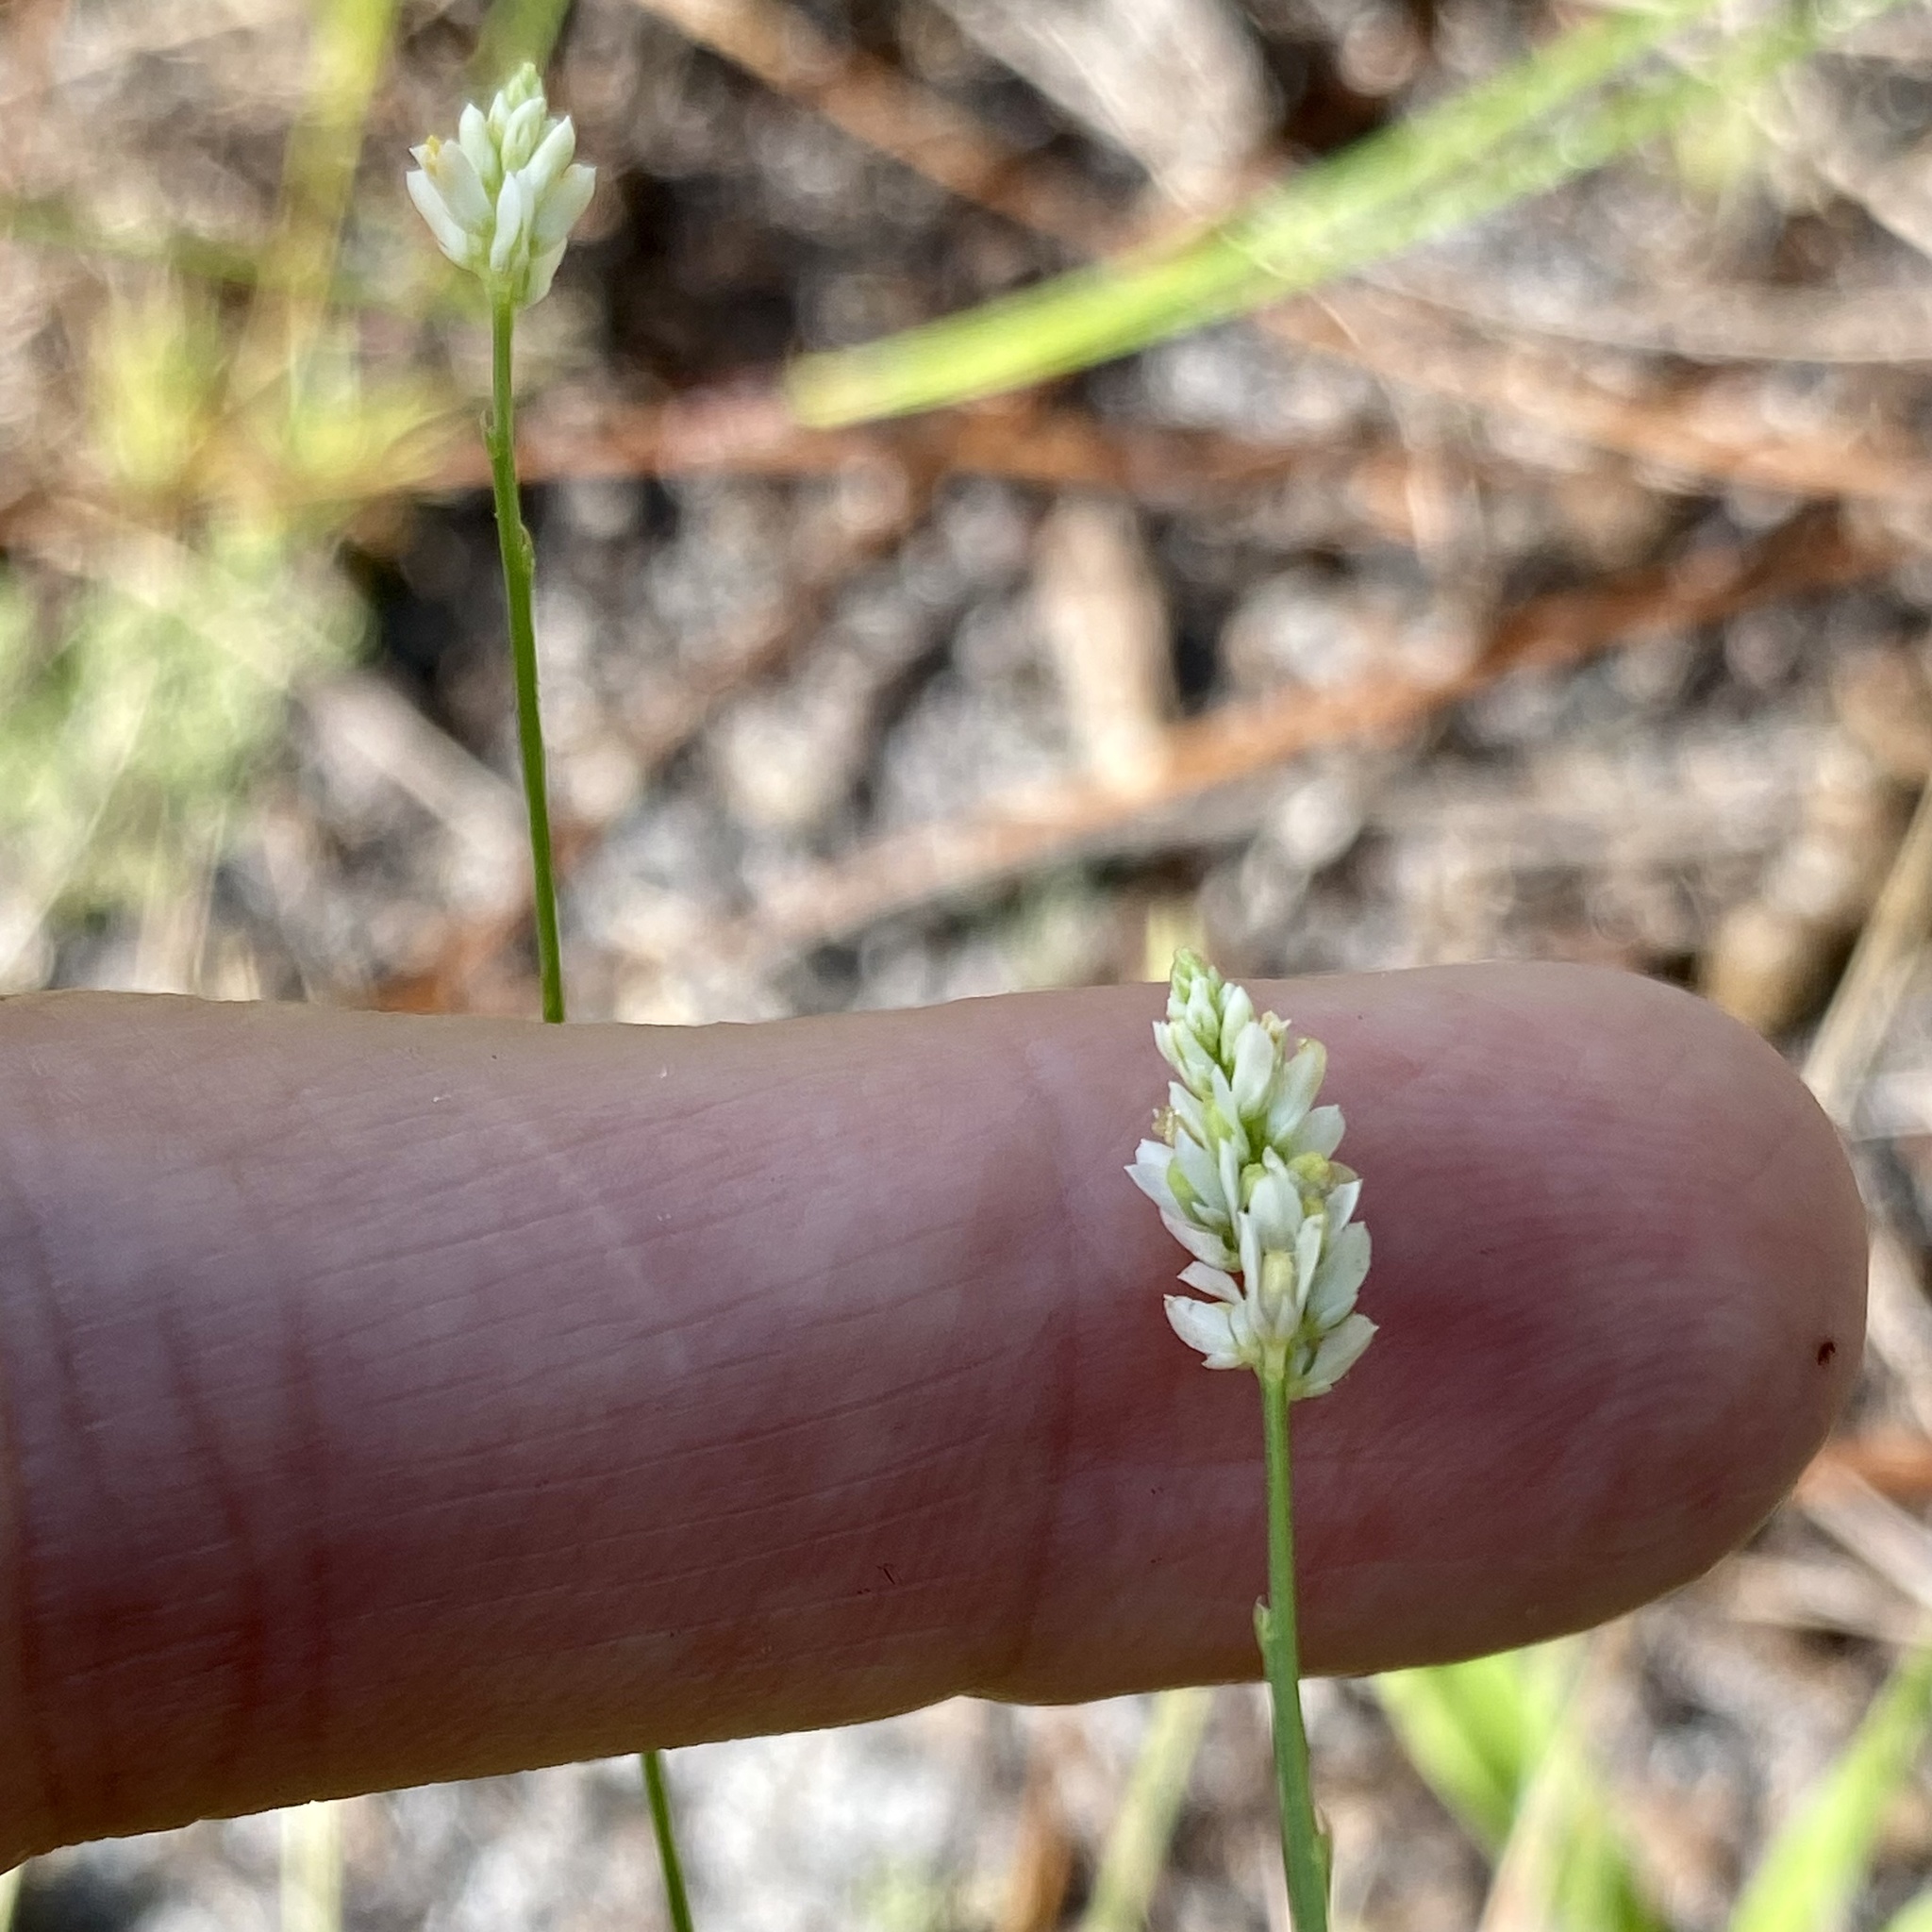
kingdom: Plantae
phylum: Tracheophyta
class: Magnoliopsida
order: Fabales
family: Polygalaceae
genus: Polygala
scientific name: Polygala setacea
